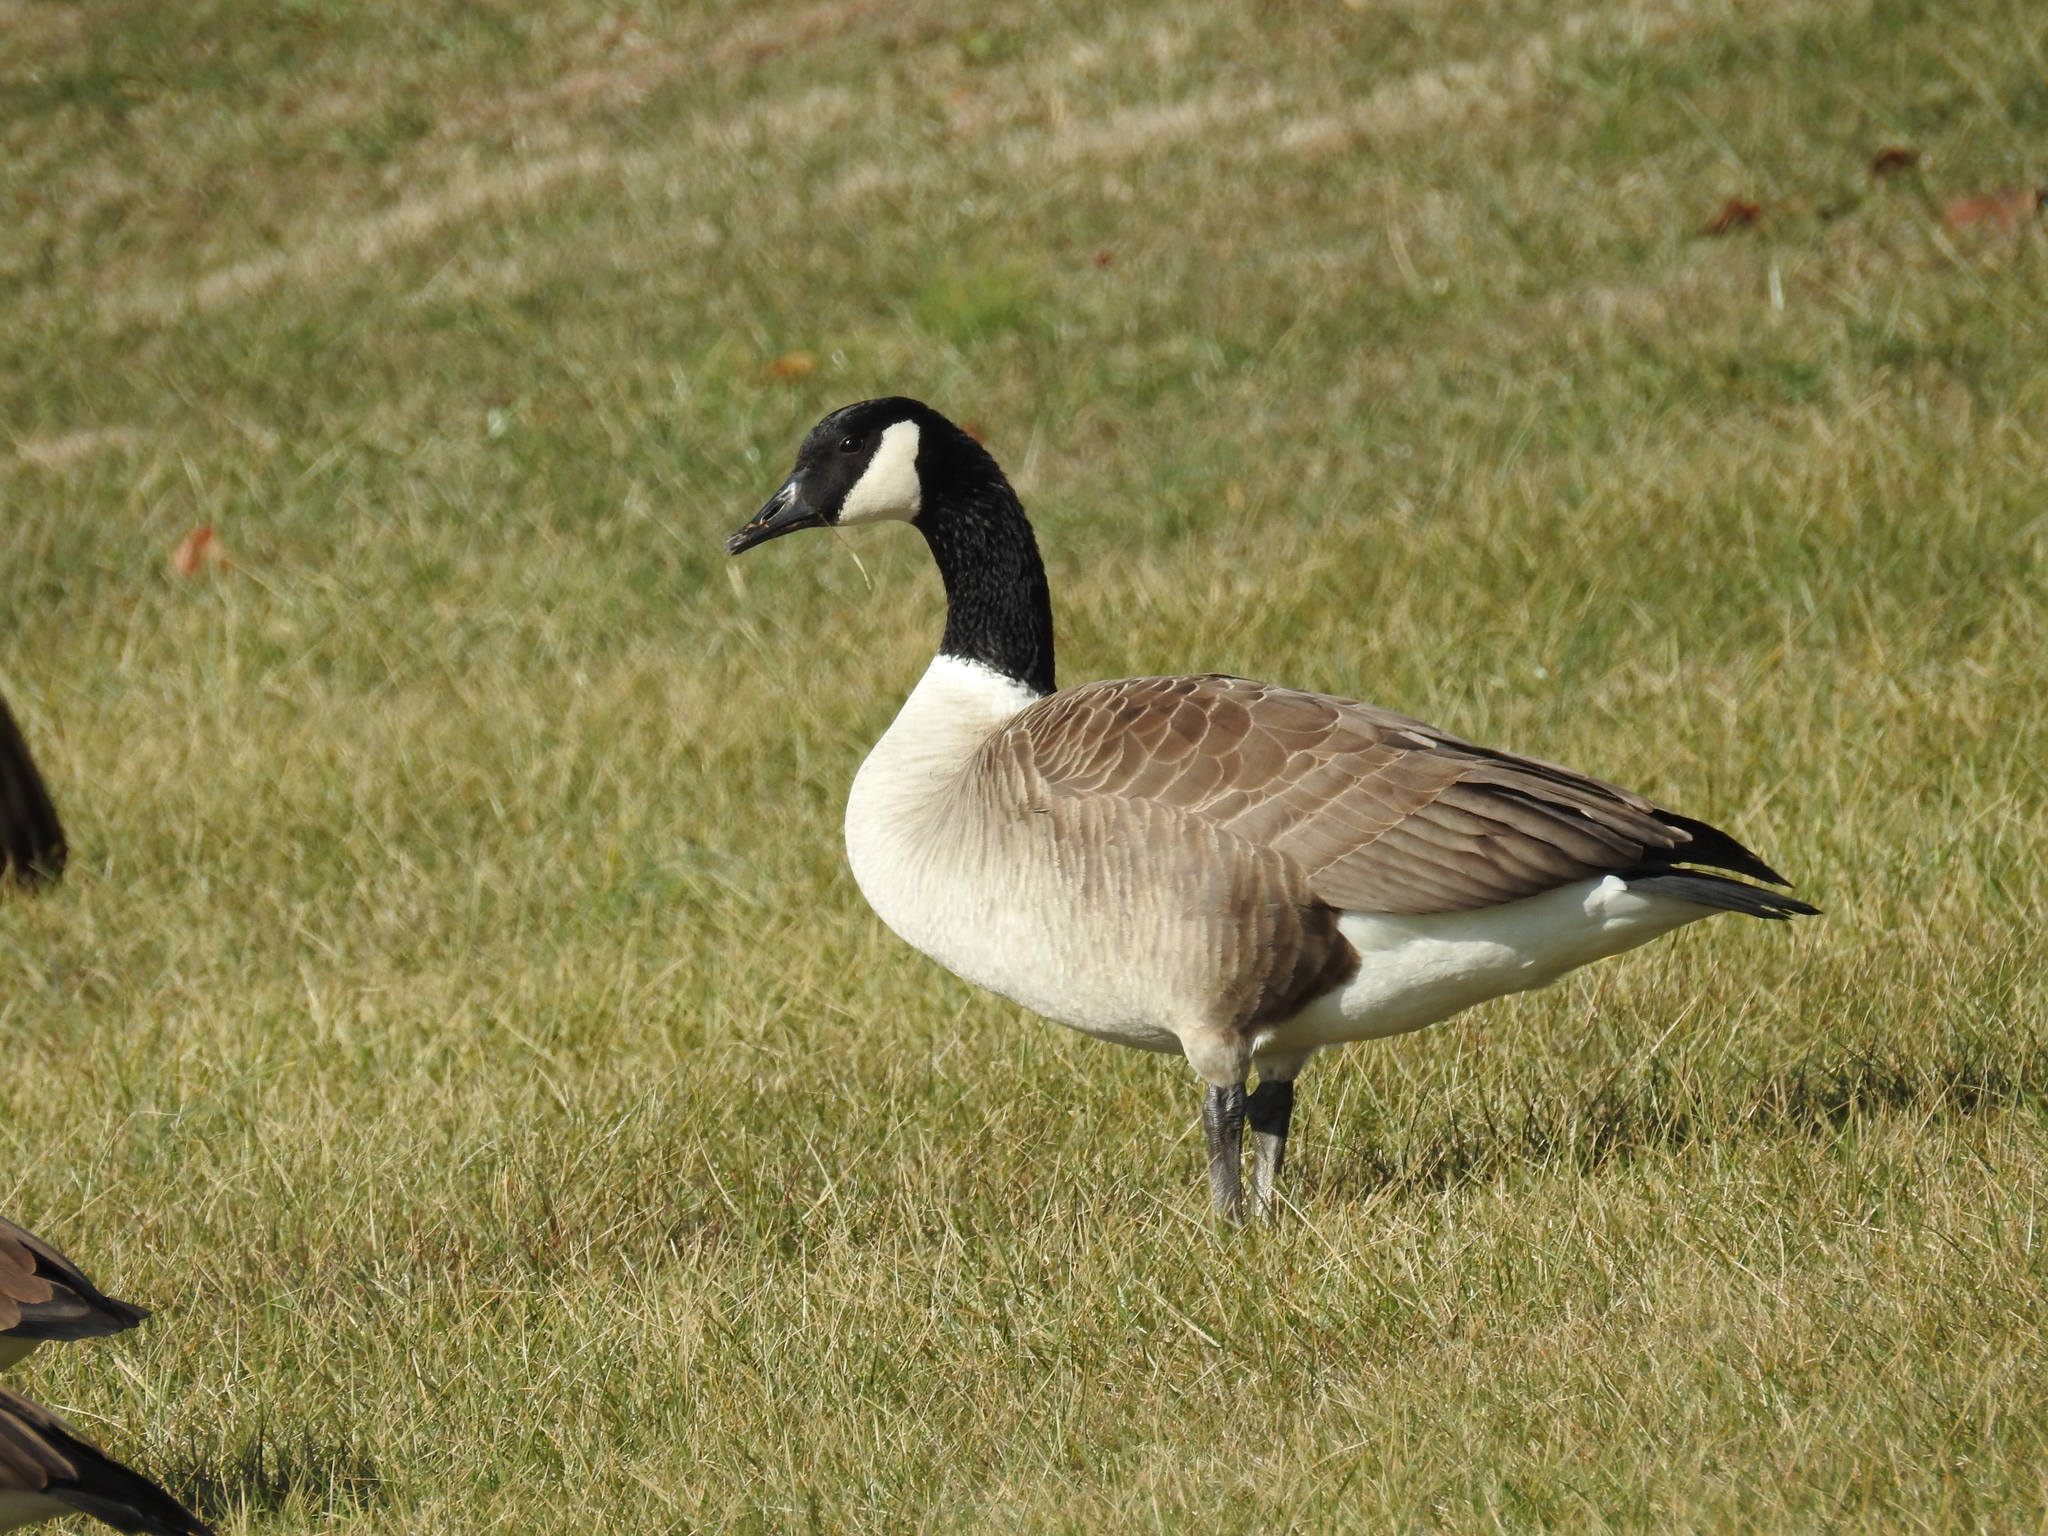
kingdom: Animalia
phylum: Chordata
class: Aves
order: Anseriformes
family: Anatidae
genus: Branta
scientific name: Branta canadensis
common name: Canada goose
